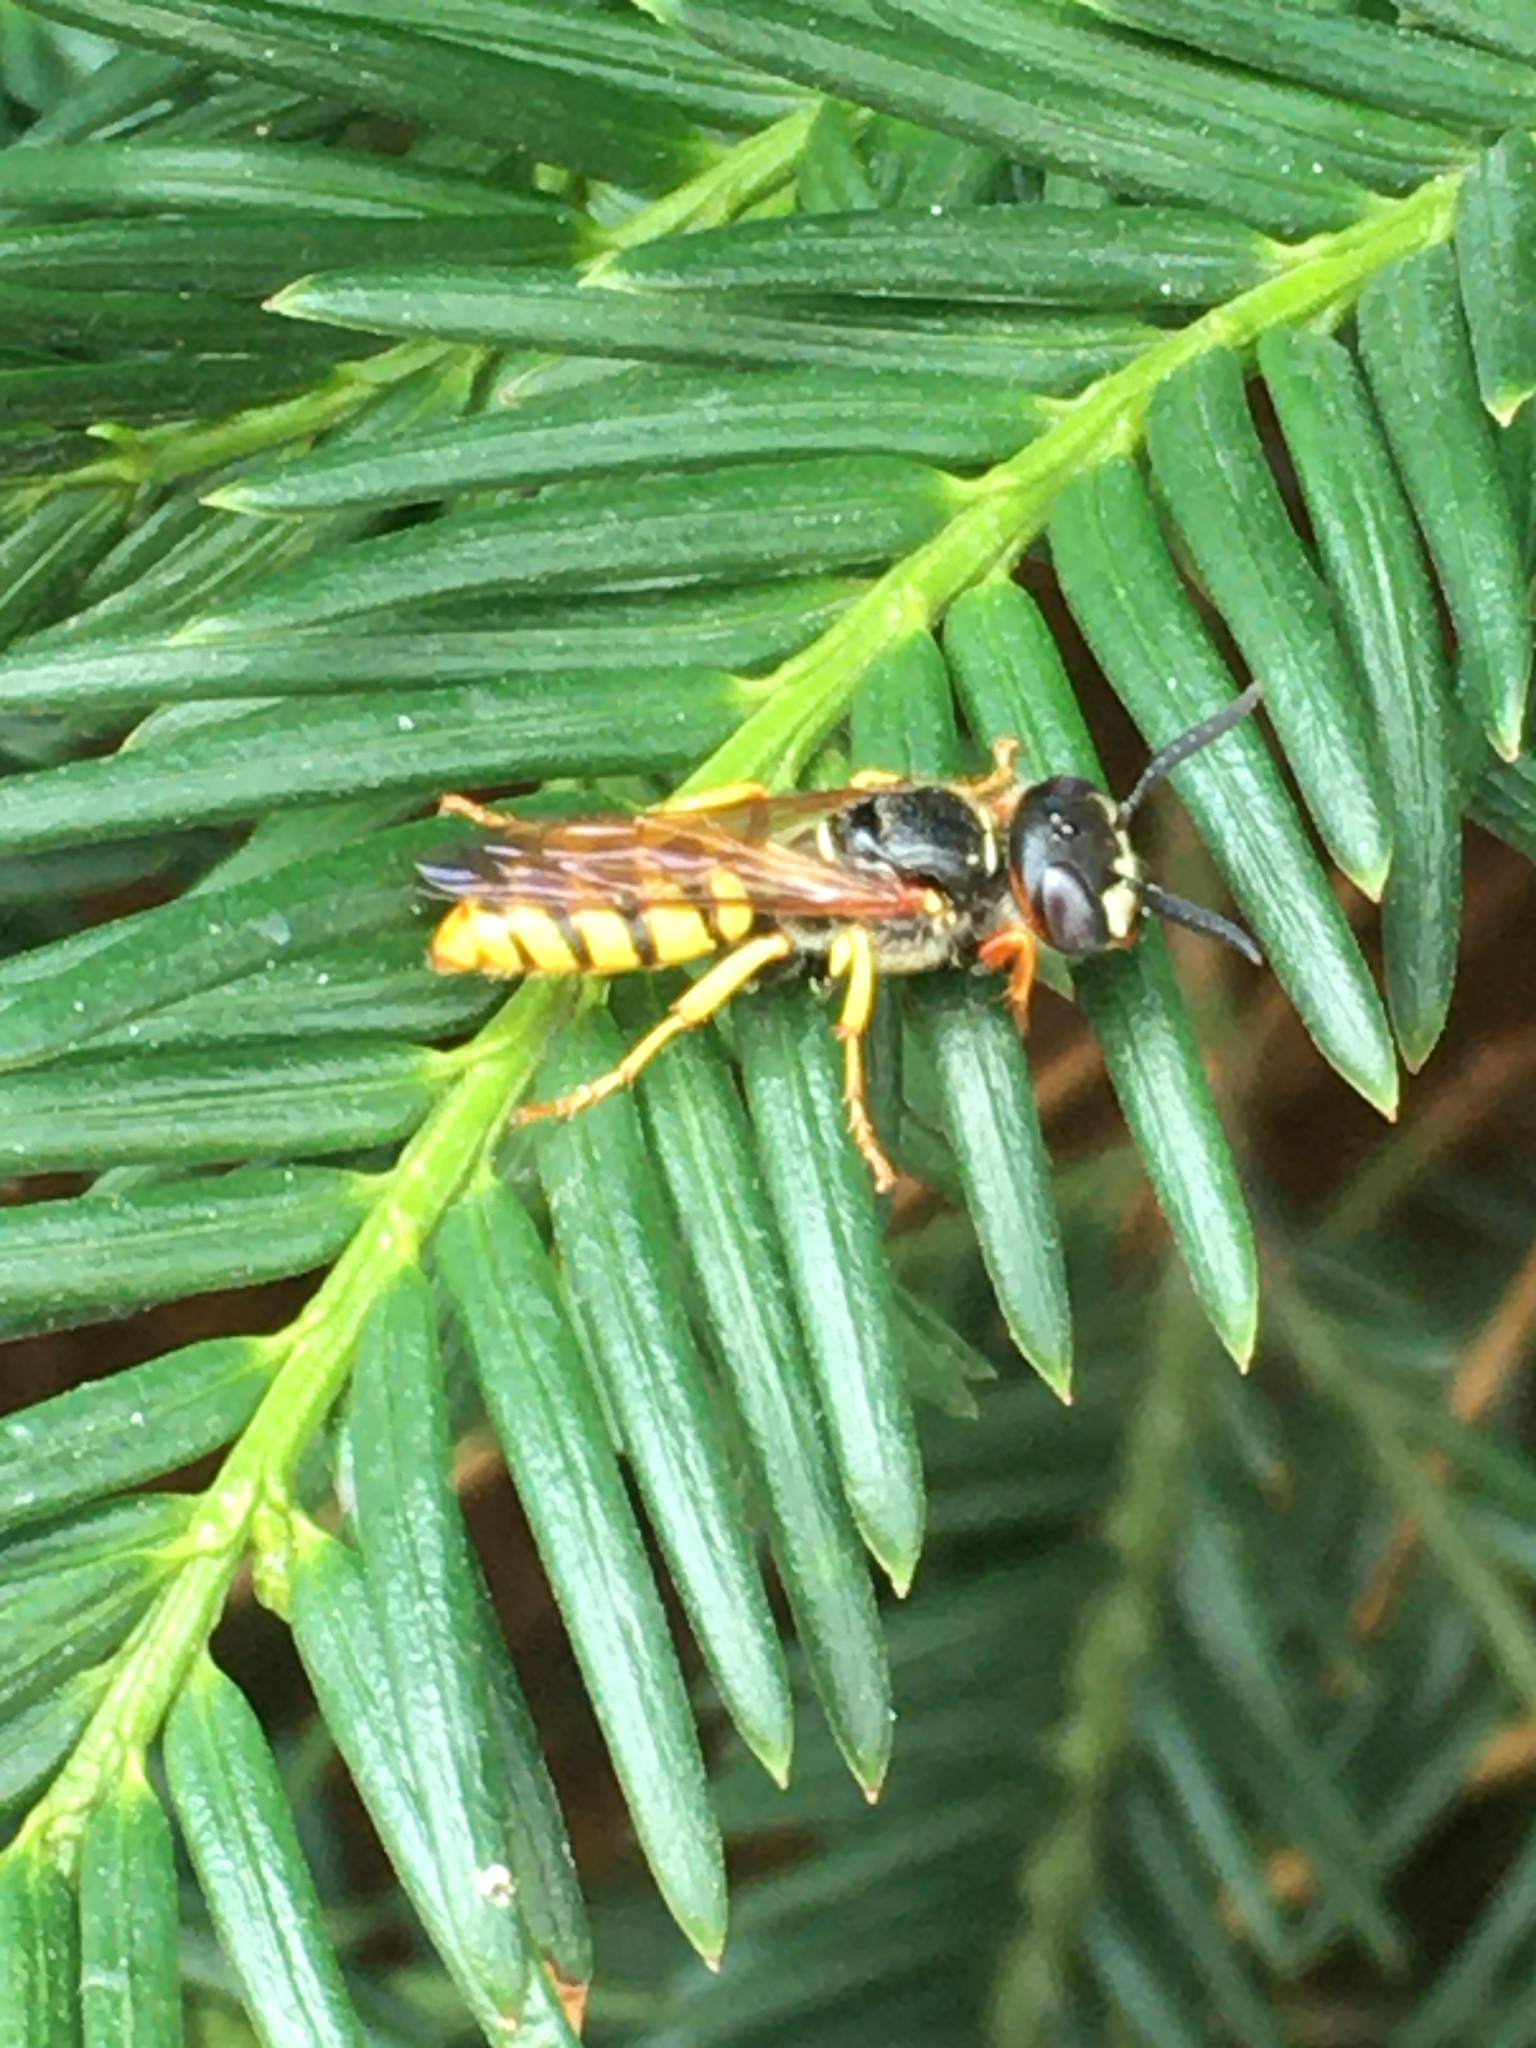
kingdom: Animalia
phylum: Arthropoda
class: Insecta
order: Hymenoptera
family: Crabronidae
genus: Philanthus
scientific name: Philanthus triangulum
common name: Bee wolf
